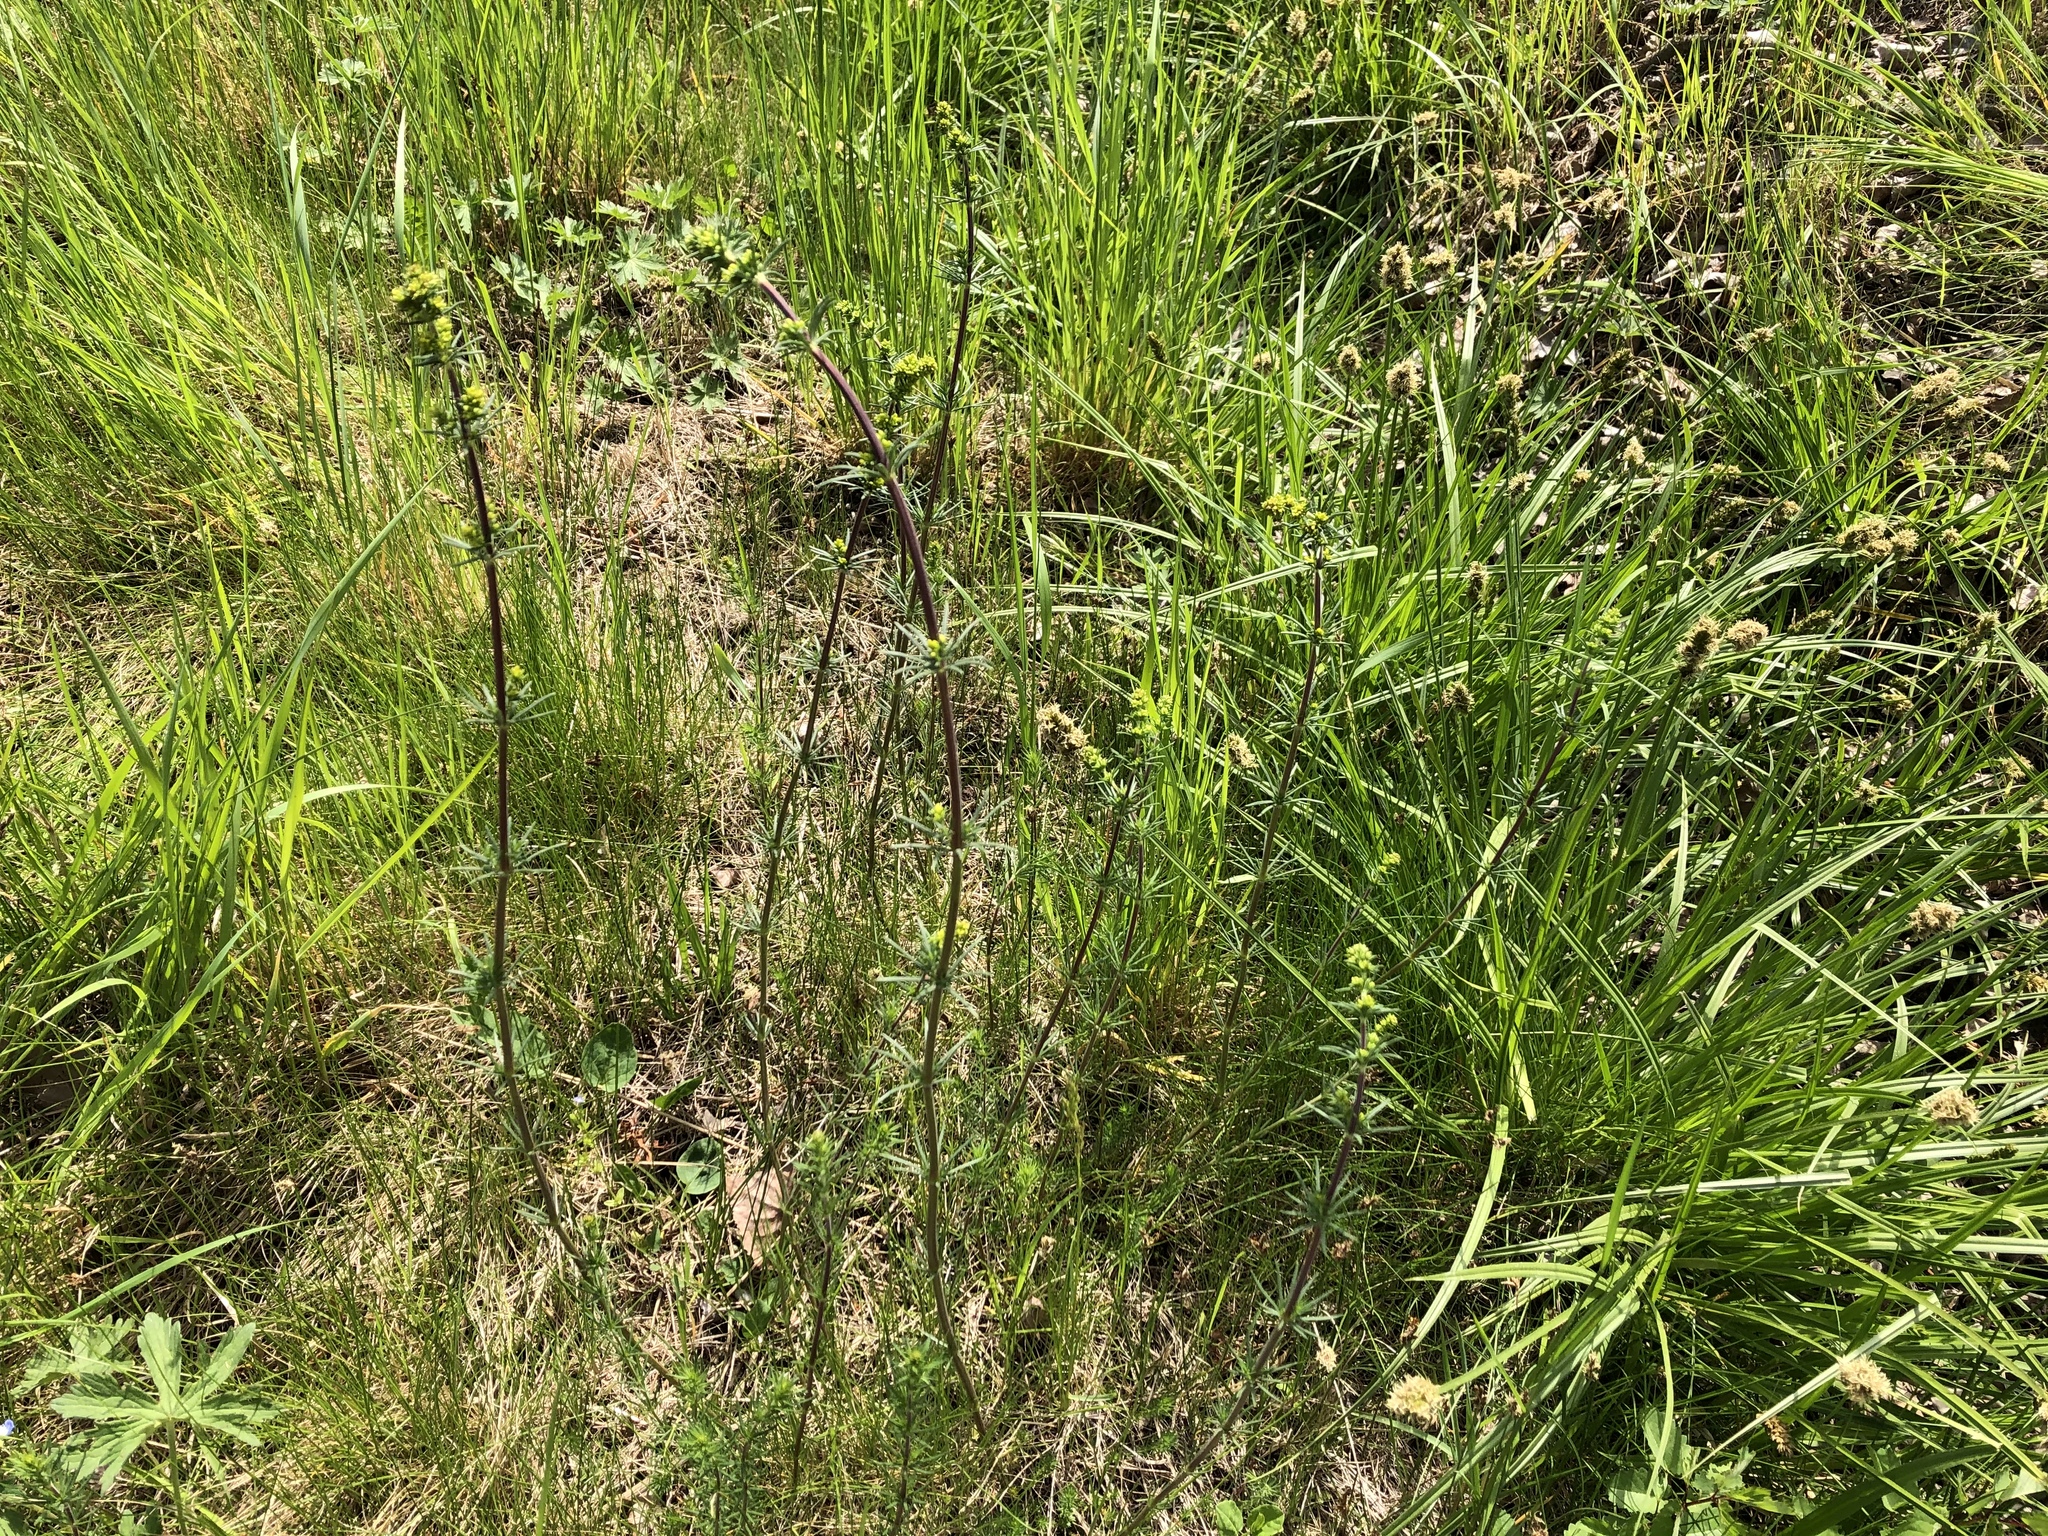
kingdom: Plantae
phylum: Tracheophyta
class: Magnoliopsida
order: Gentianales
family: Rubiaceae
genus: Galium
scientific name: Galium verum
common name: Lady's bedstraw
